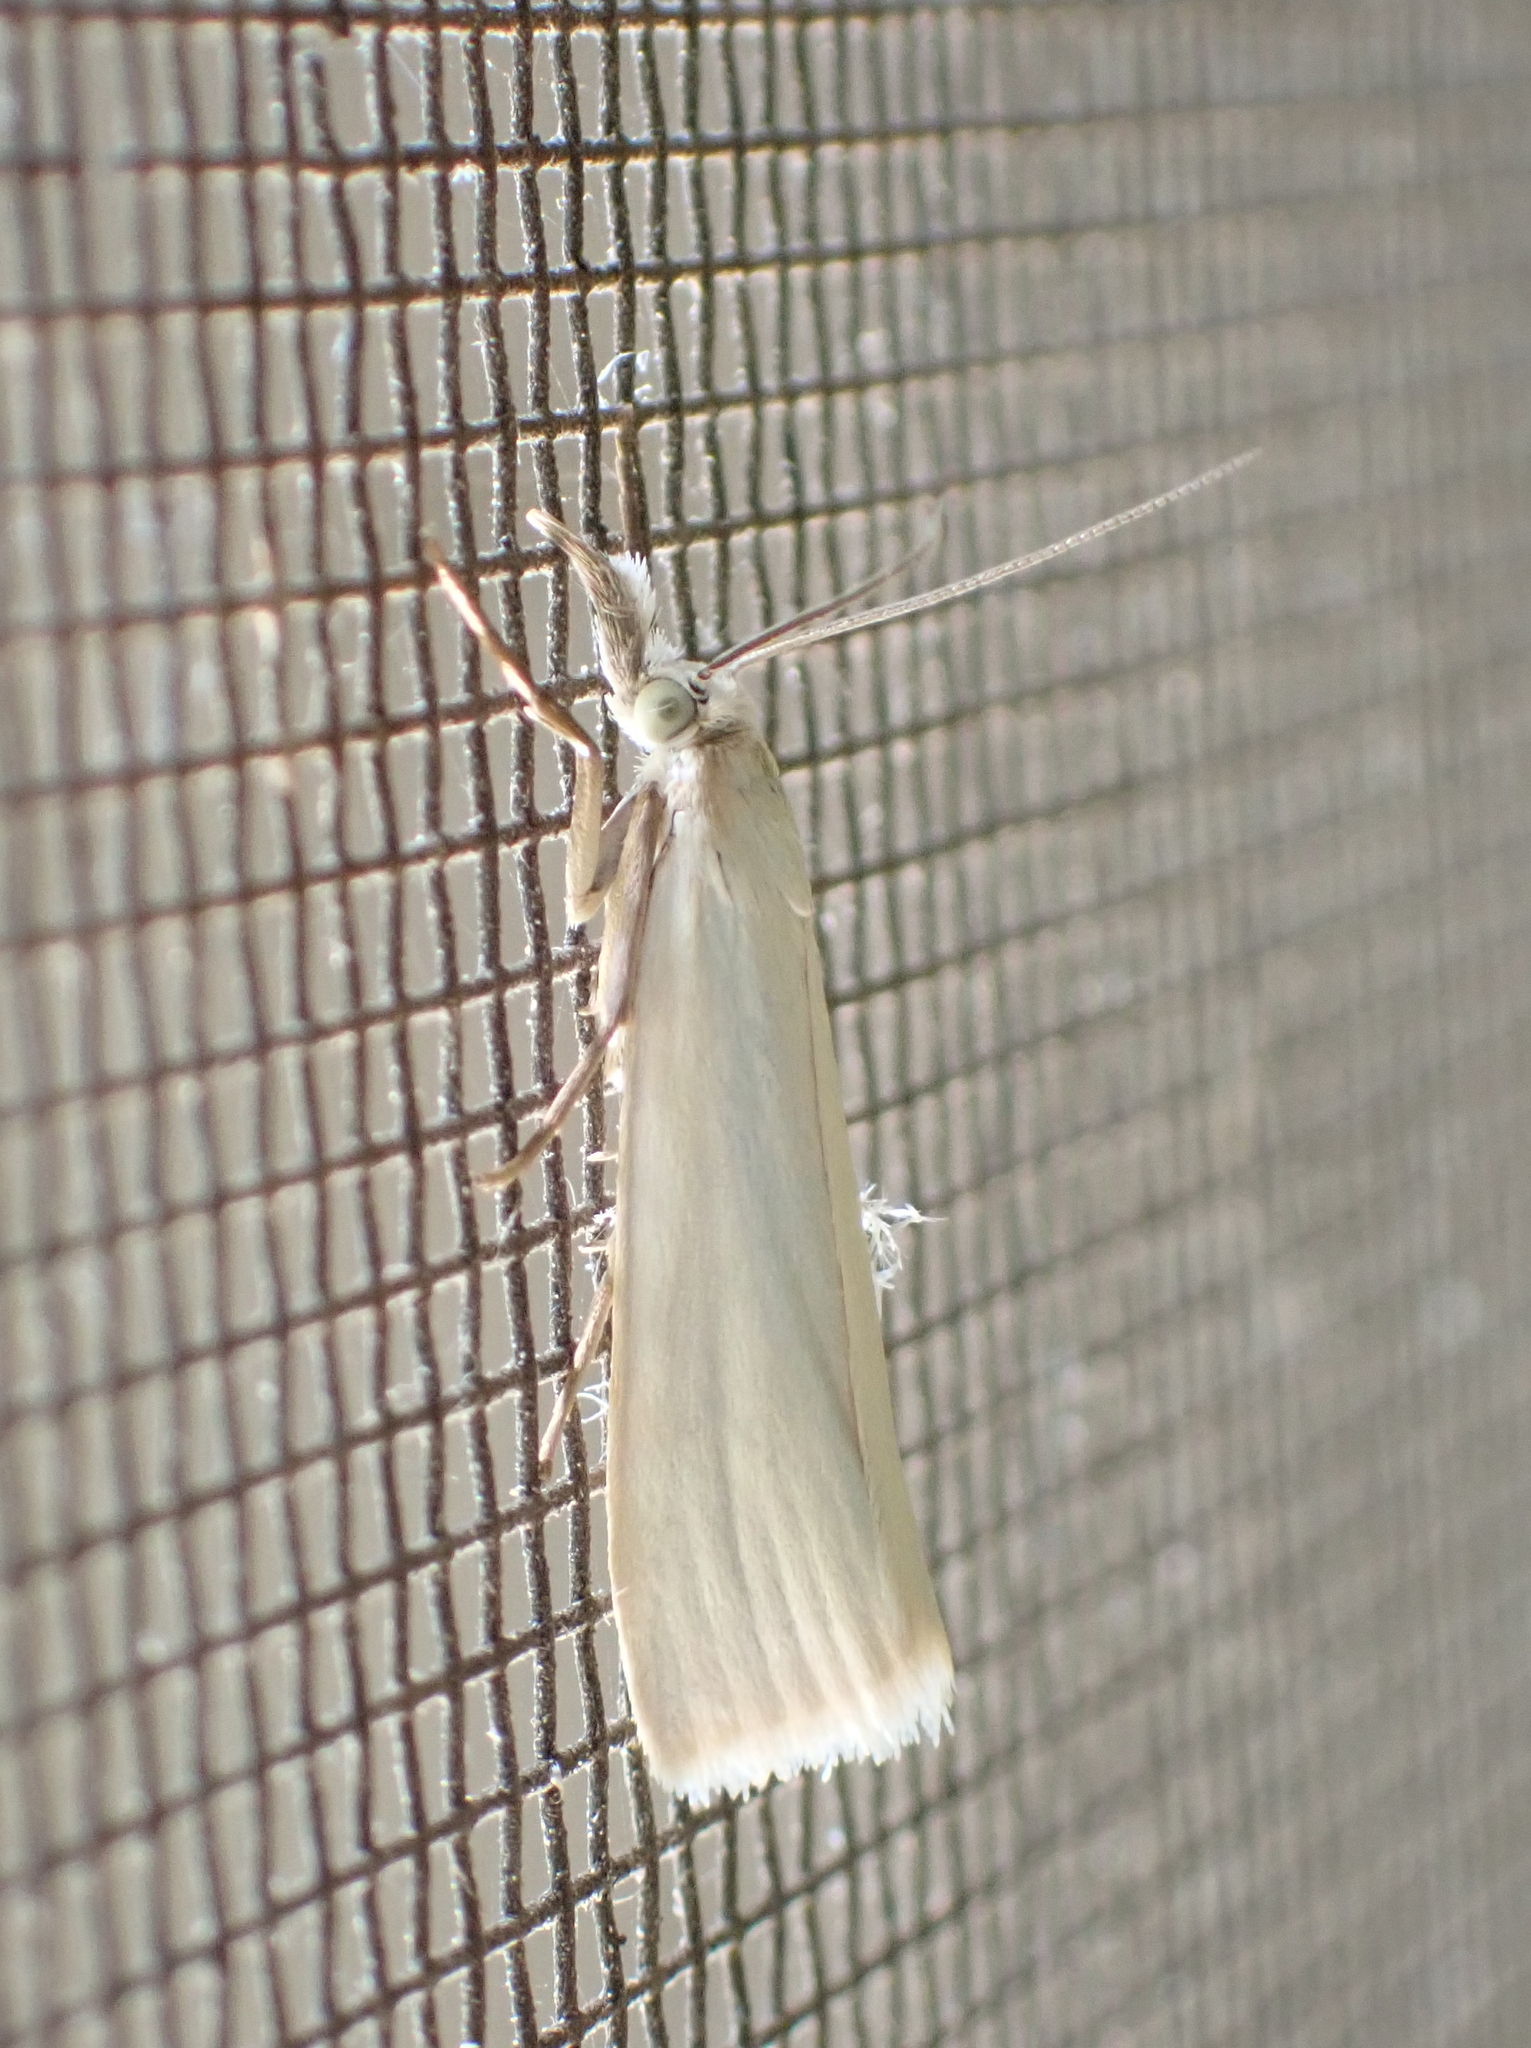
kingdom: Animalia
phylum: Arthropoda
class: Insecta
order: Lepidoptera
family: Crambidae
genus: Crambus
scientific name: Crambus perlellus
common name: Yellow satin veneer
